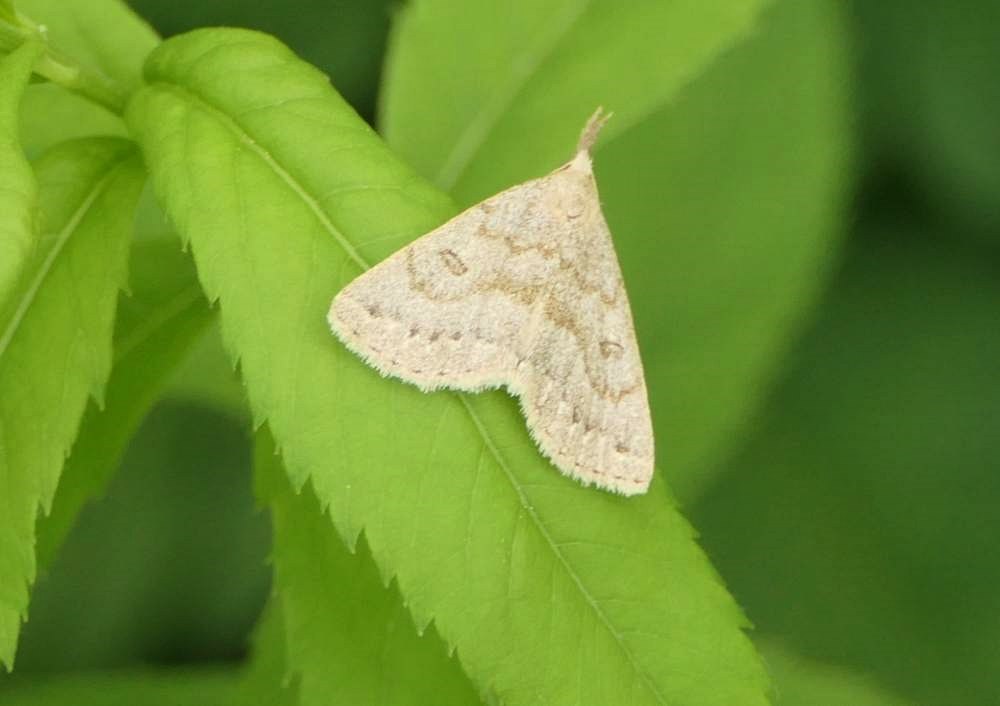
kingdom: Animalia
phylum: Arthropoda
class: Insecta
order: Lepidoptera
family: Erebidae
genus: Macrochilo
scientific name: Macrochilo morbidalis
